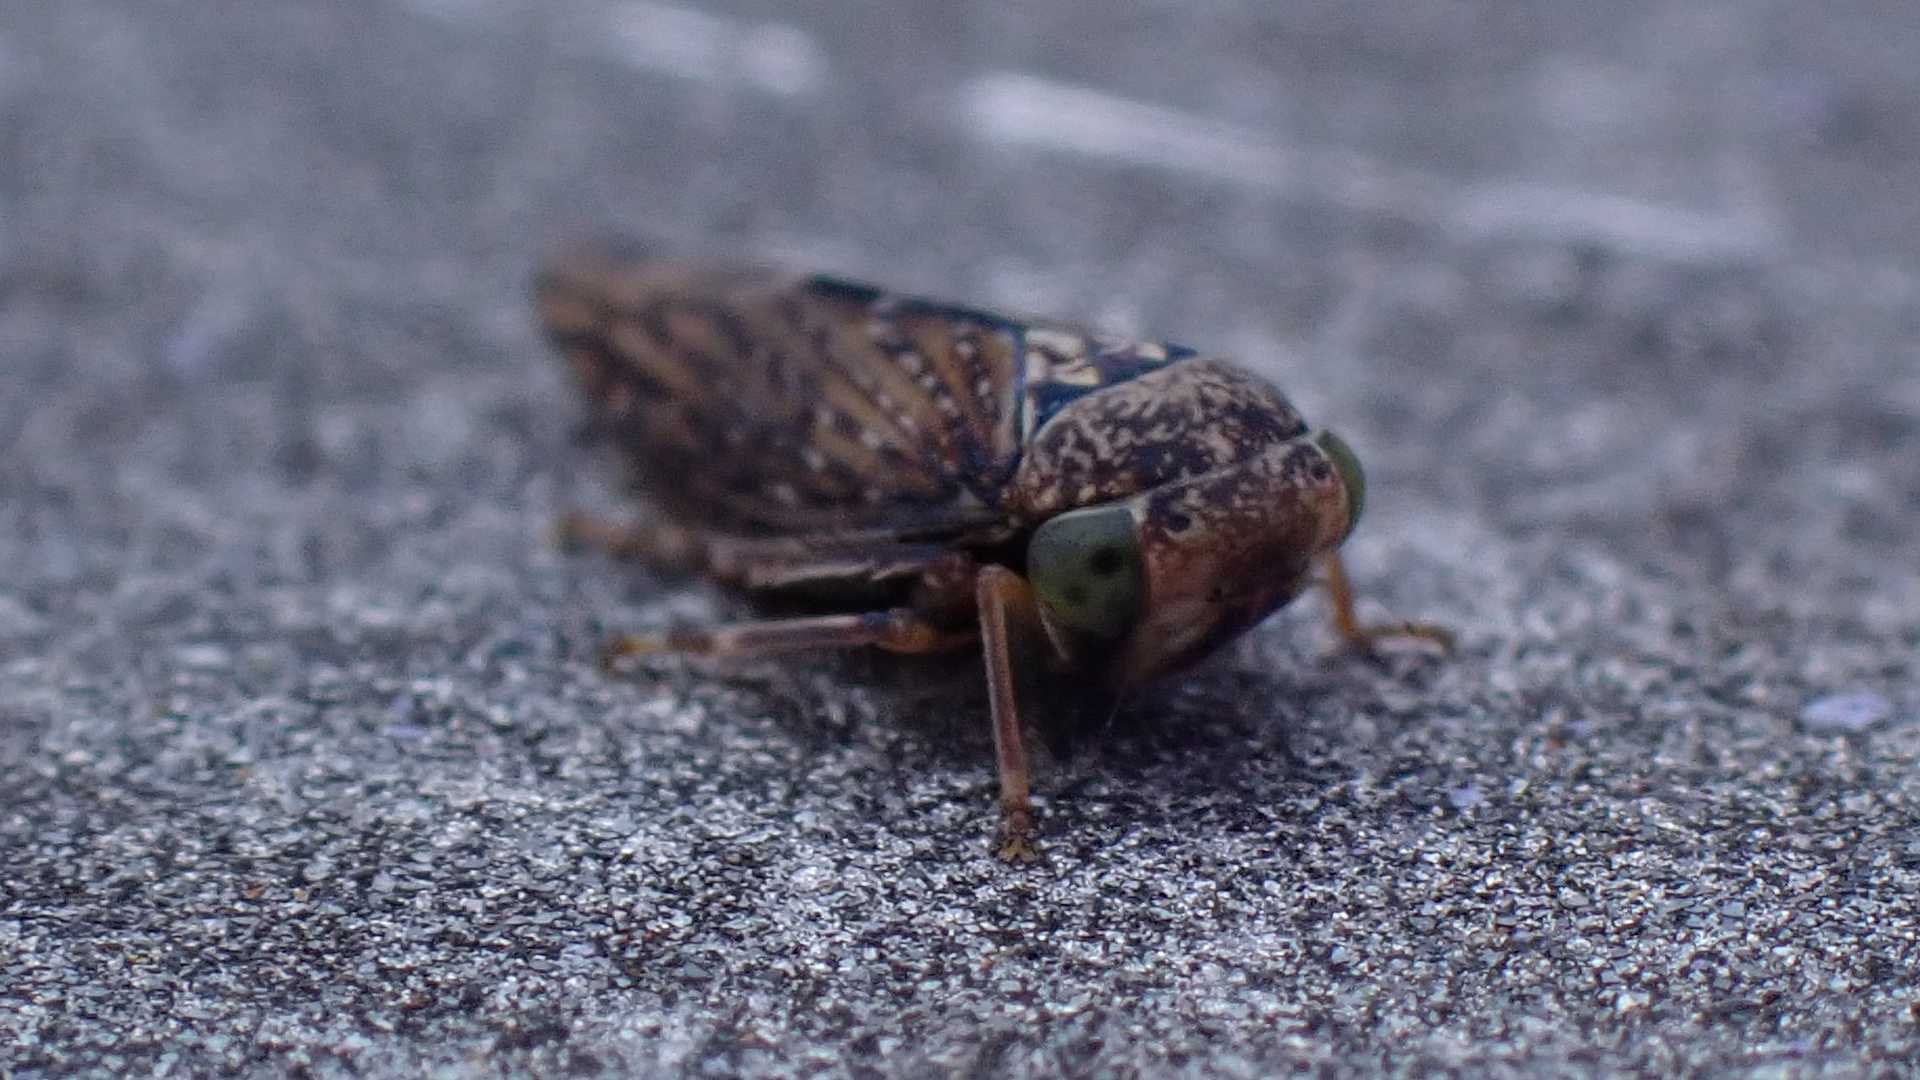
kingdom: Animalia
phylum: Arthropoda
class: Insecta
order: Hemiptera
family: Cicadellidae
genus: Acericerus
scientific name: Acericerus ribauti
